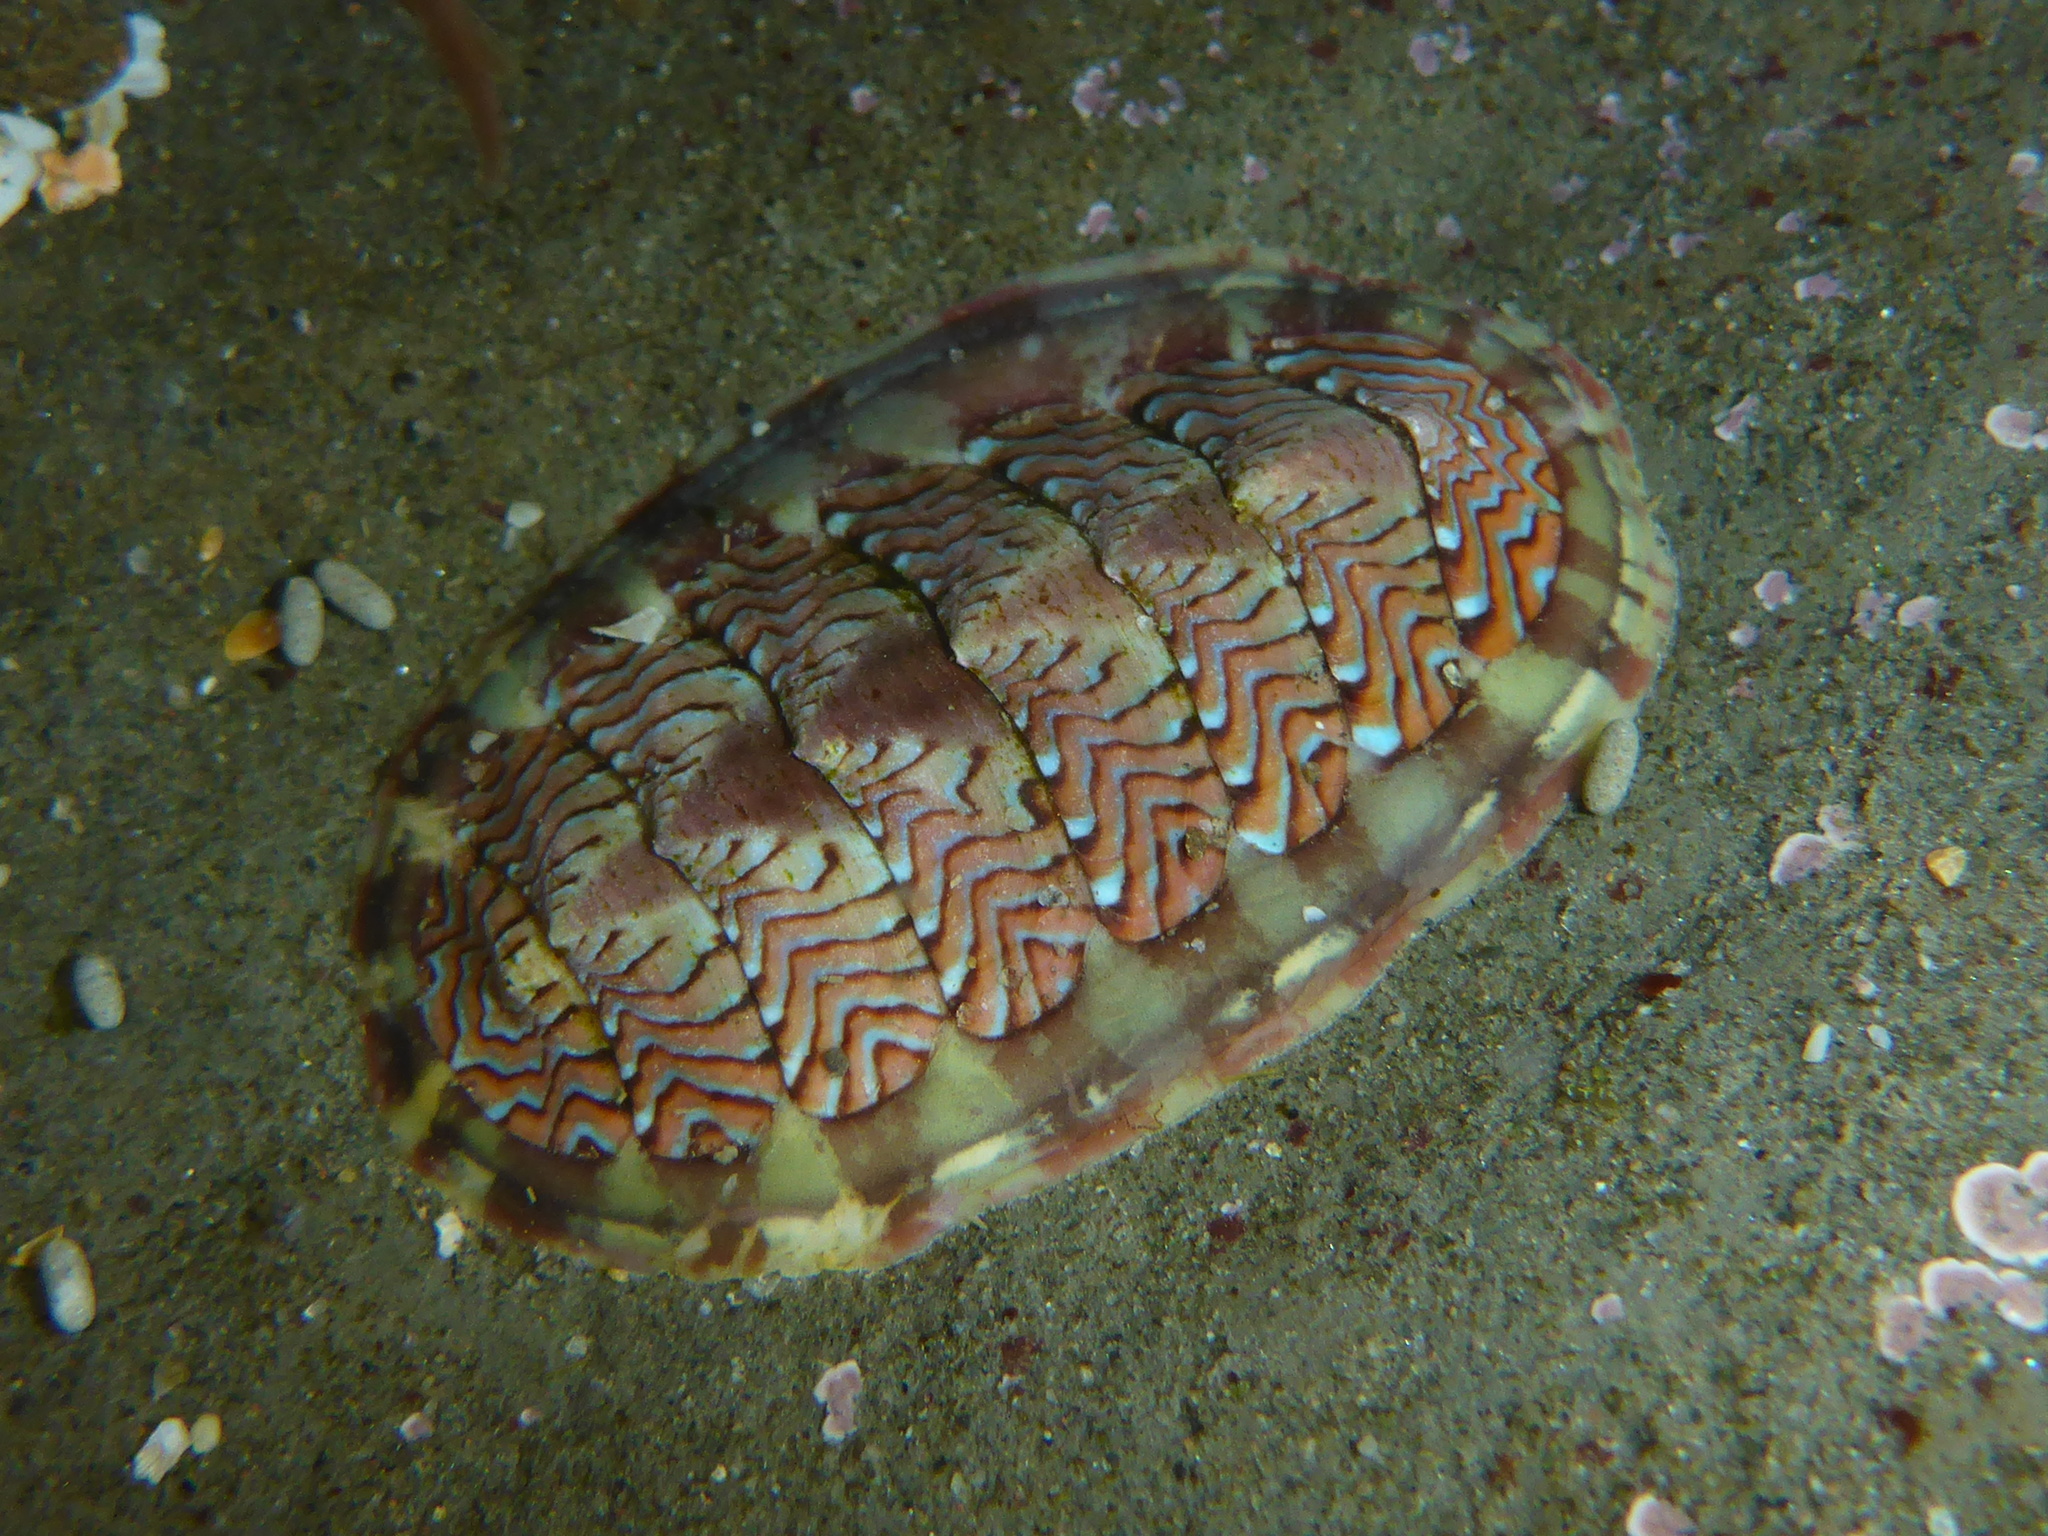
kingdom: Animalia
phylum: Mollusca
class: Polyplacophora
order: Chitonida
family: Tonicellidae
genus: Tonicella
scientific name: Tonicella lokii
